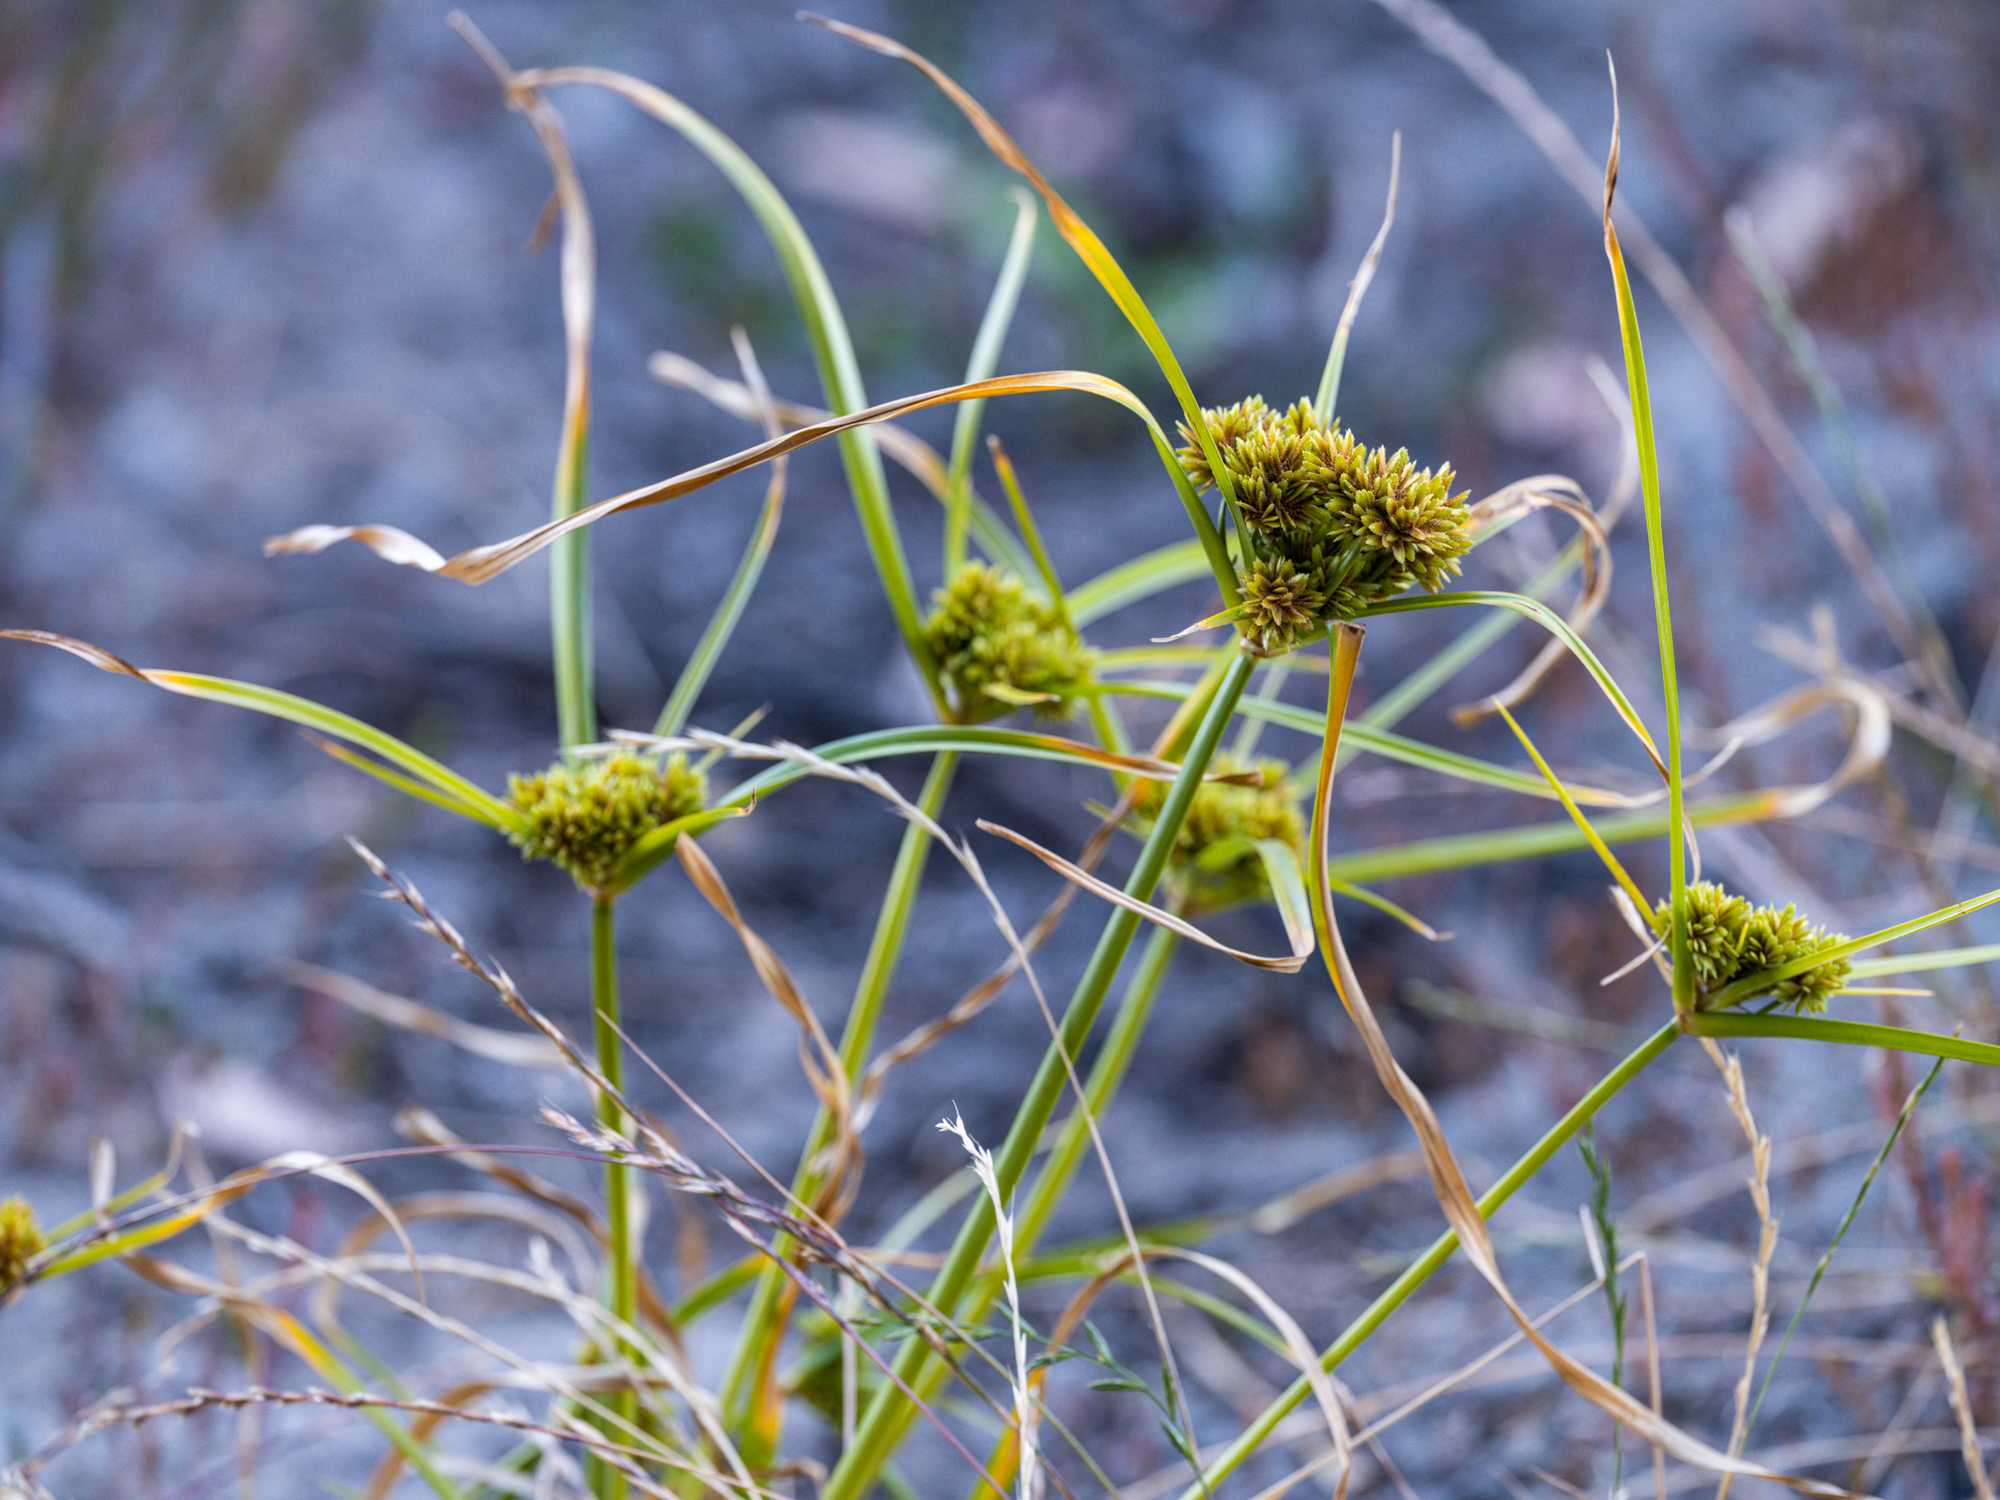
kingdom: Plantae
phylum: Tracheophyta
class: Liliopsida
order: Poales
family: Cyperaceae
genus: Cyperus
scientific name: Cyperus eragrostis
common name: Tall flatsedge
